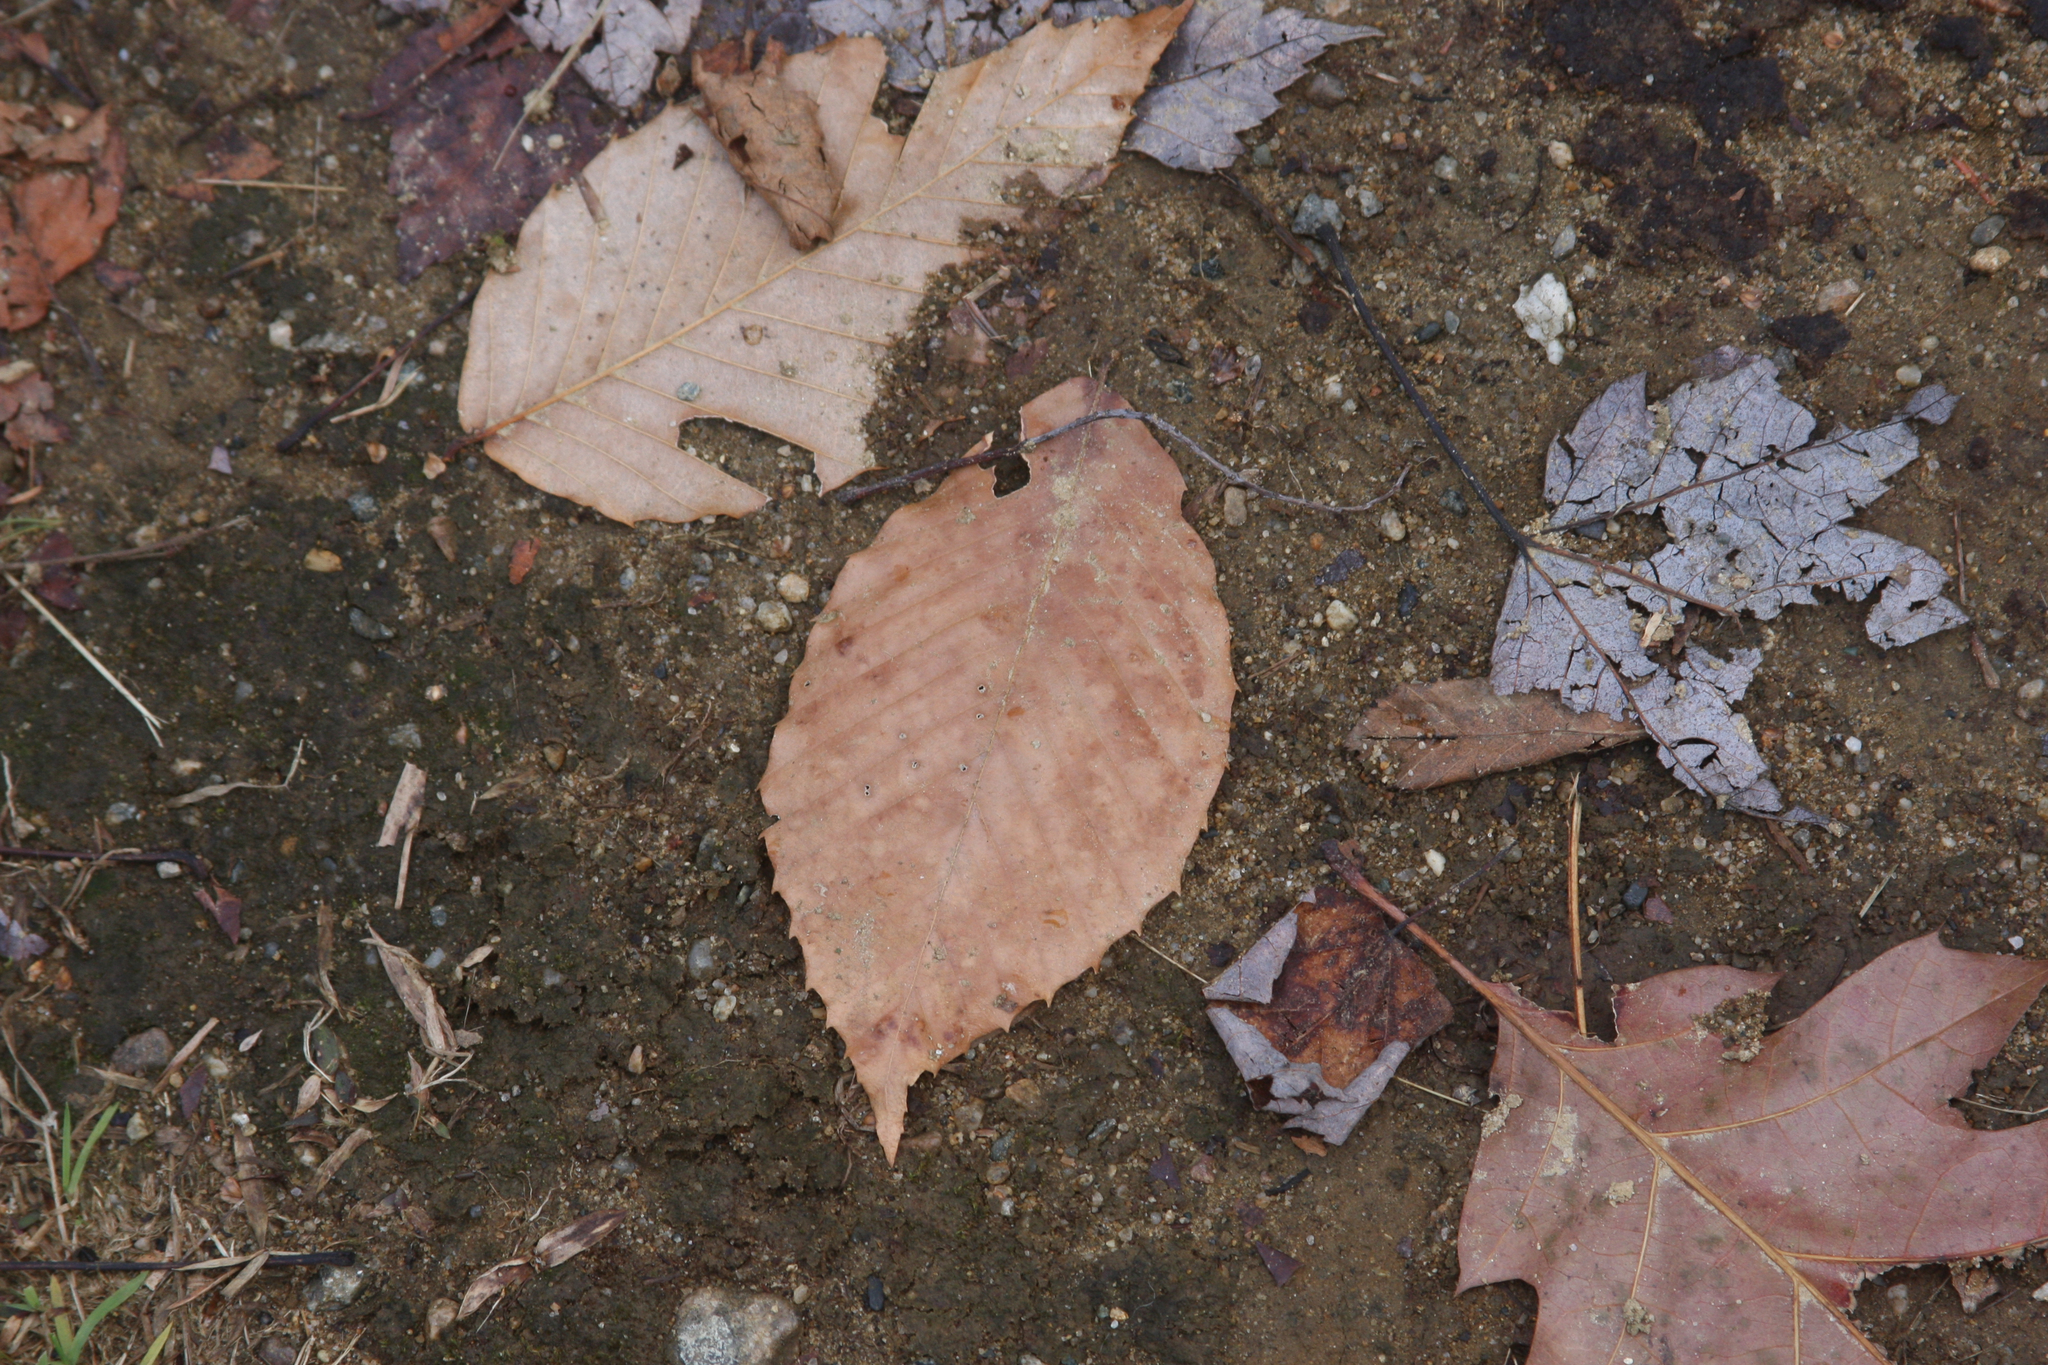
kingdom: Plantae
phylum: Tracheophyta
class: Magnoliopsida
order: Fagales
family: Fagaceae
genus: Fagus
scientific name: Fagus grandifolia
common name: American beech
